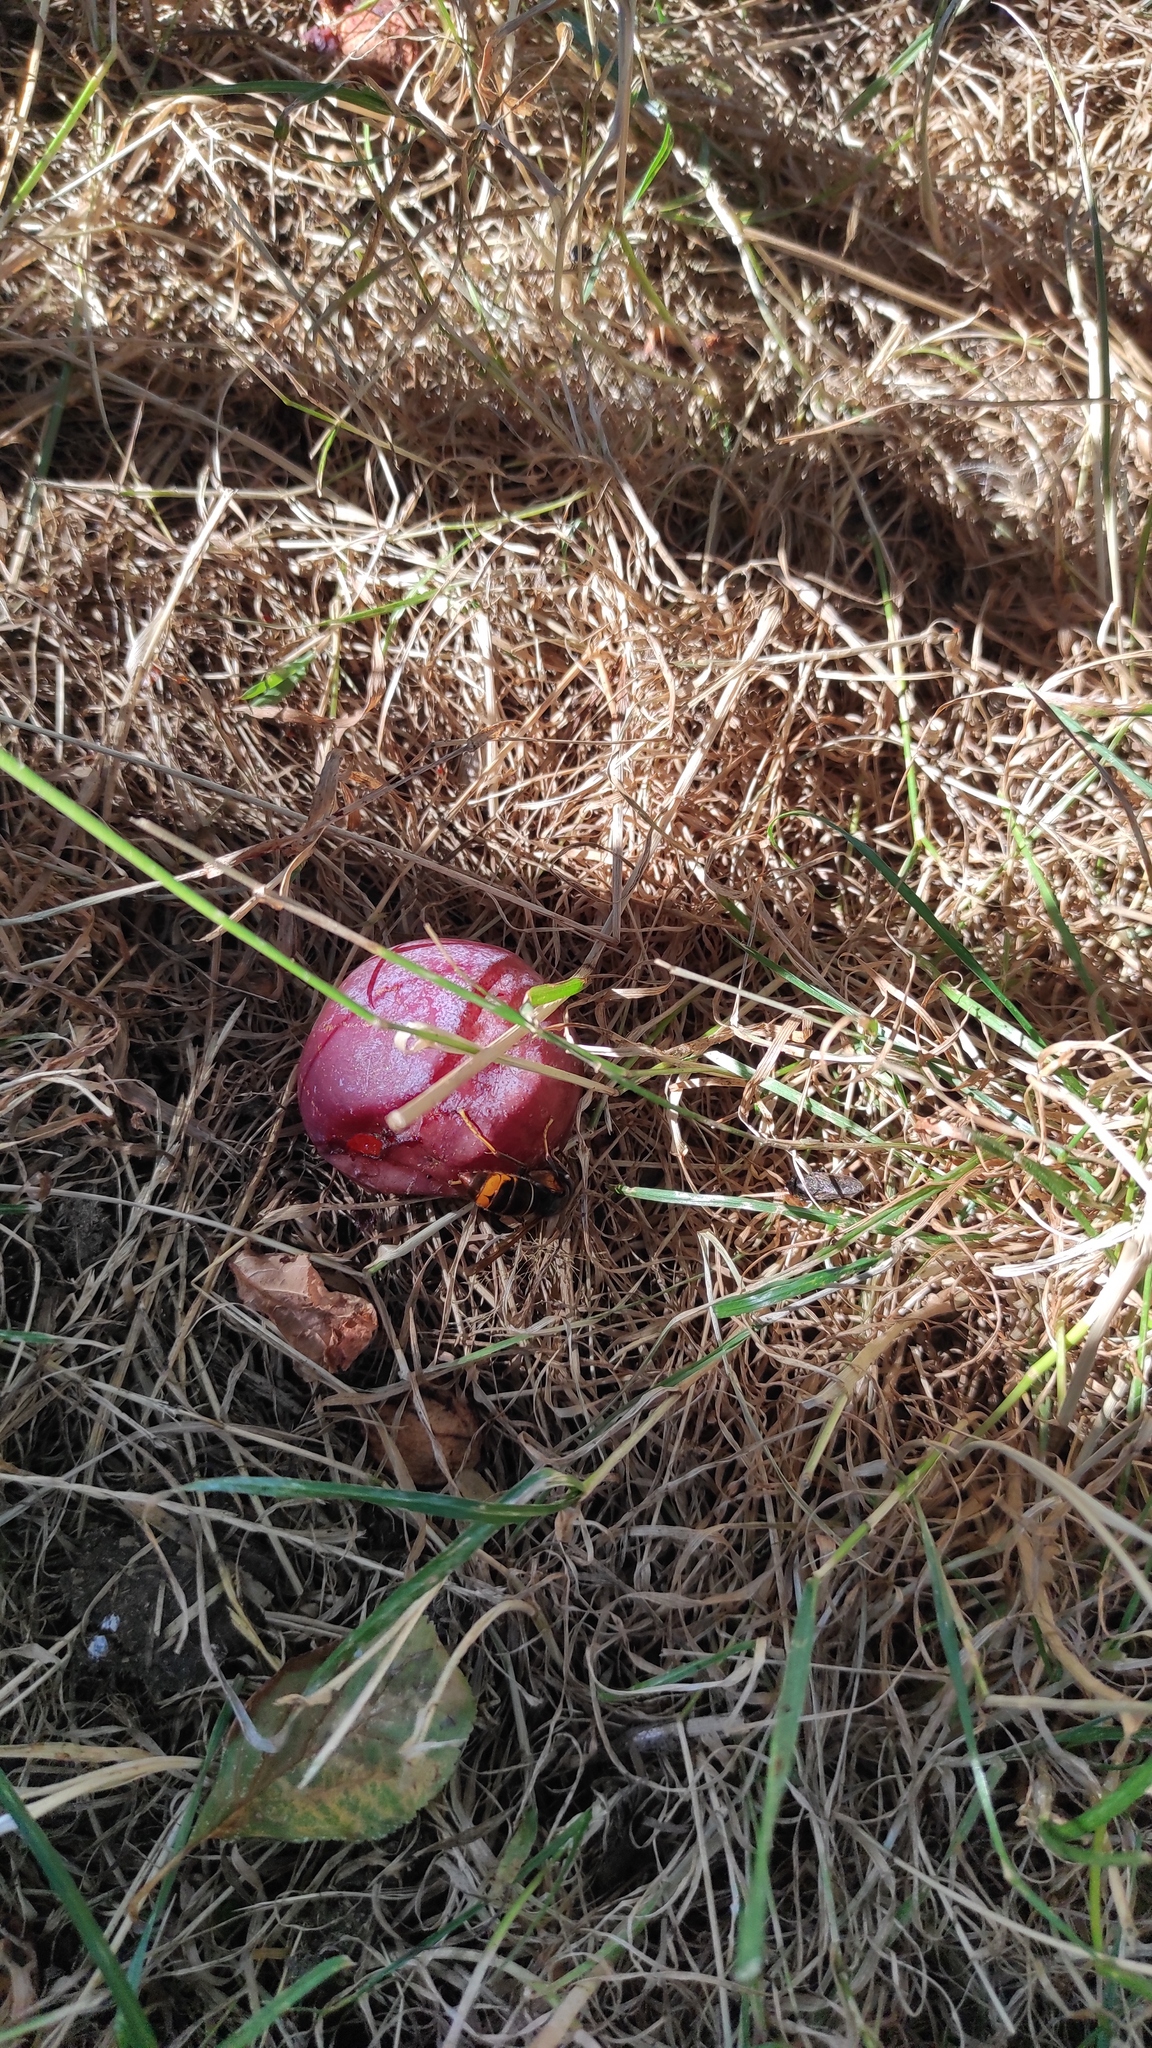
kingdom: Animalia
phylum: Arthropoda
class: Insecta
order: Hymenoptera
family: Vespidae
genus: Vespa
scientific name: Vespa velutina
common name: Asian hornet
